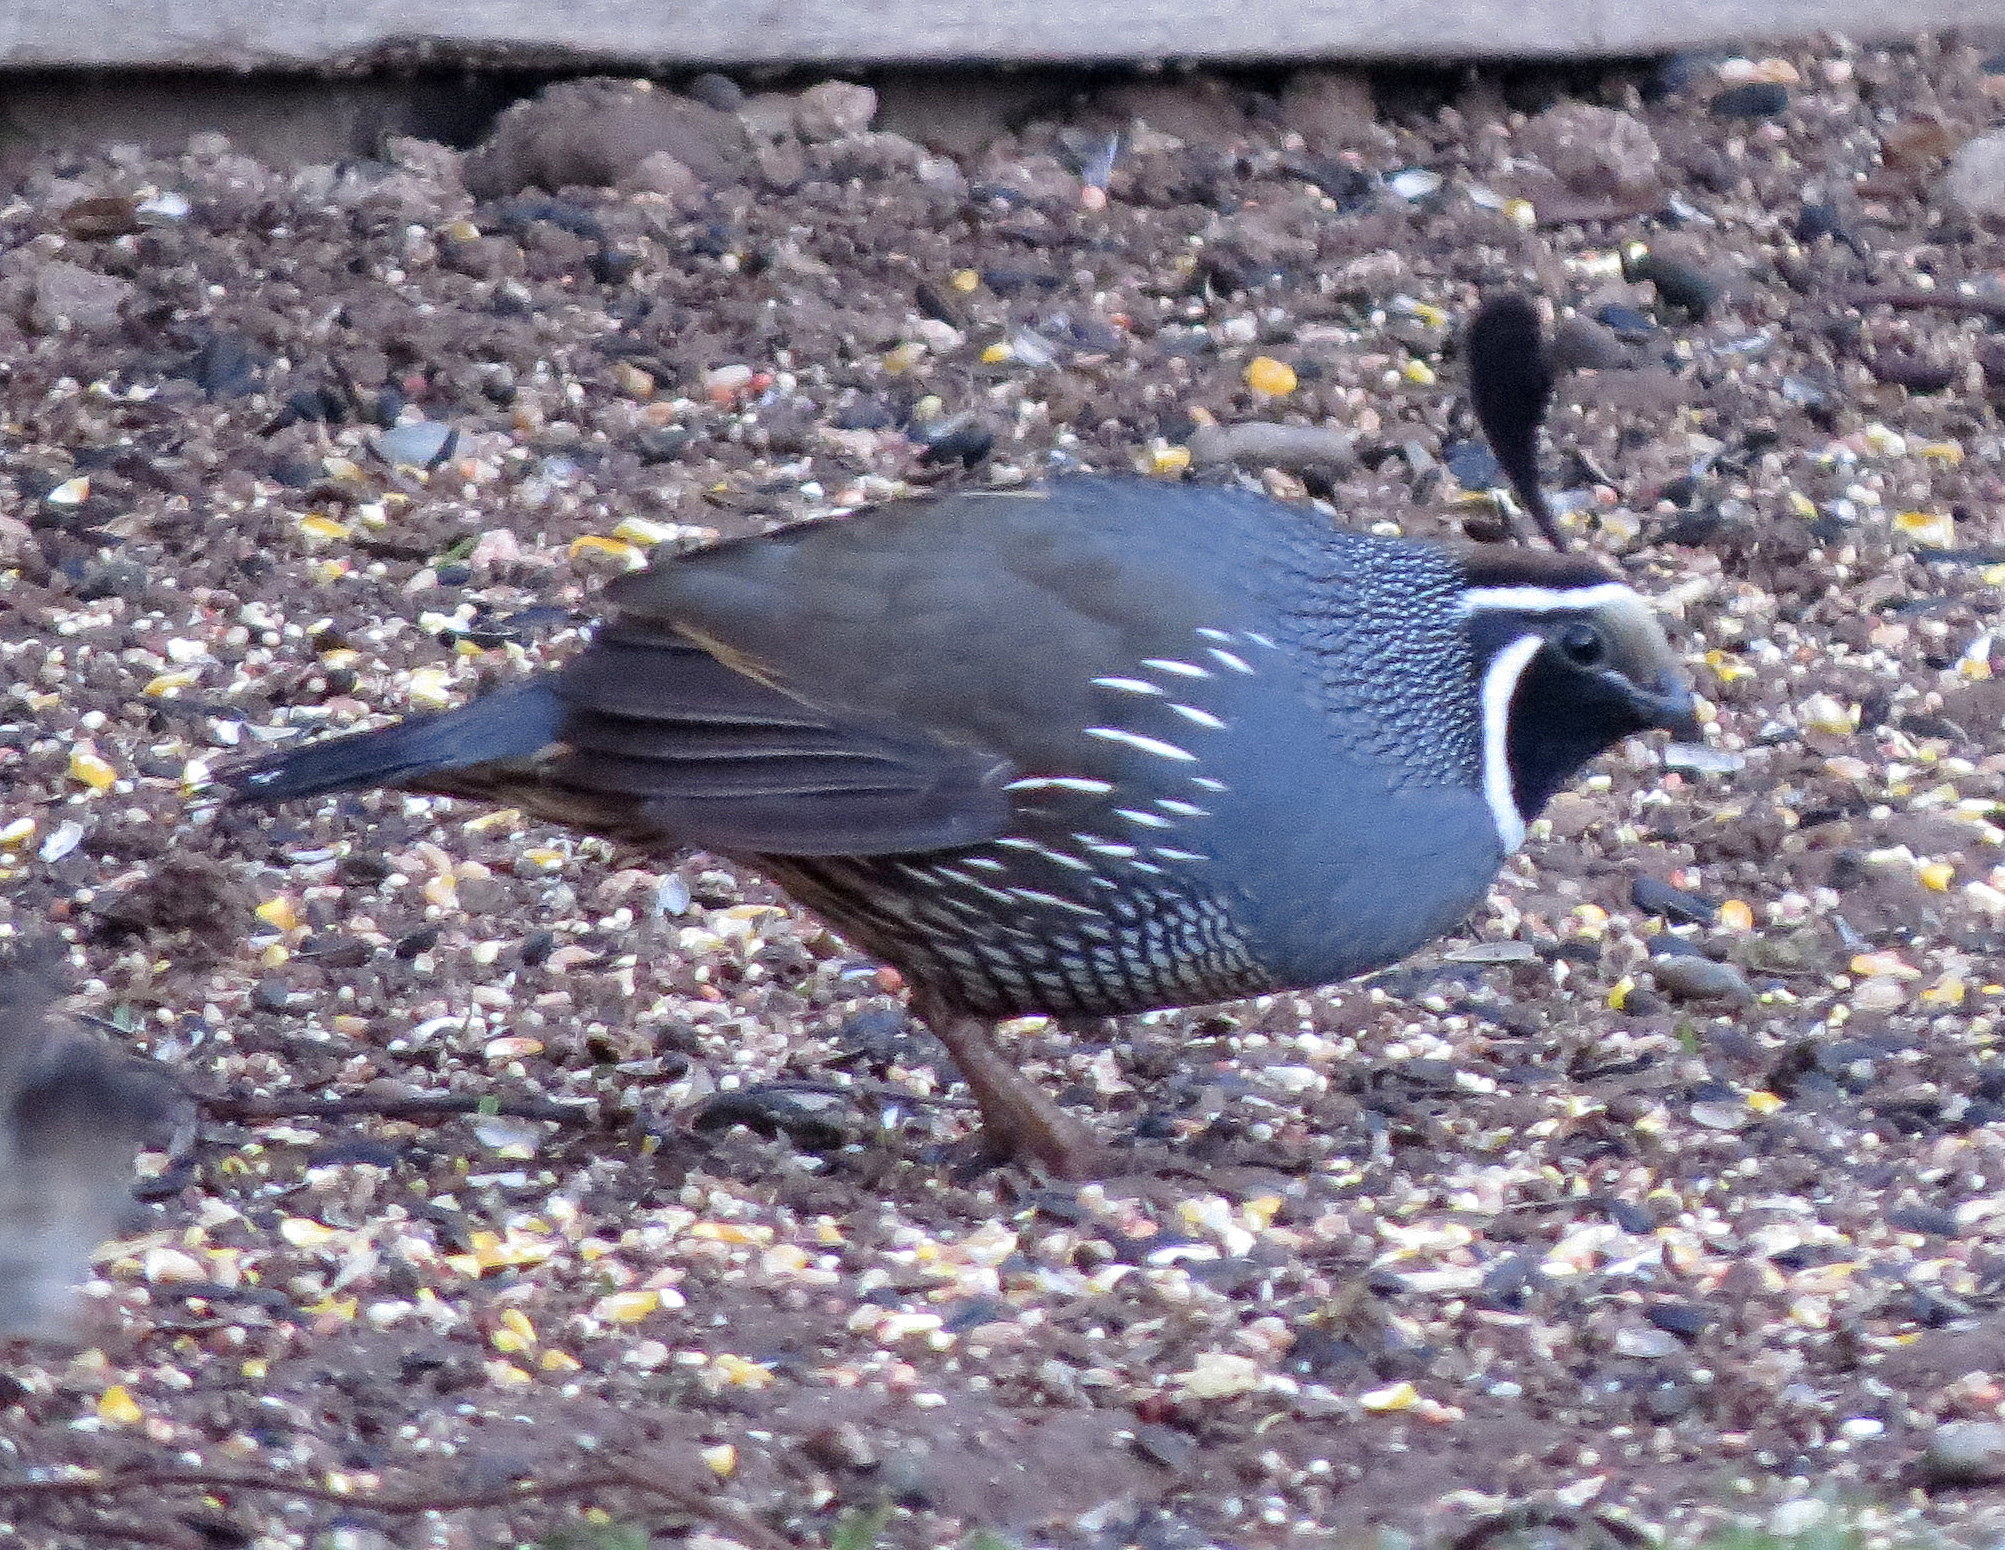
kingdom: Animalia
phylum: Chordata
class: Aves
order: Galliformes
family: Odontophoridae
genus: Callipepla
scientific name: Callipepla californica
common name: California quail
